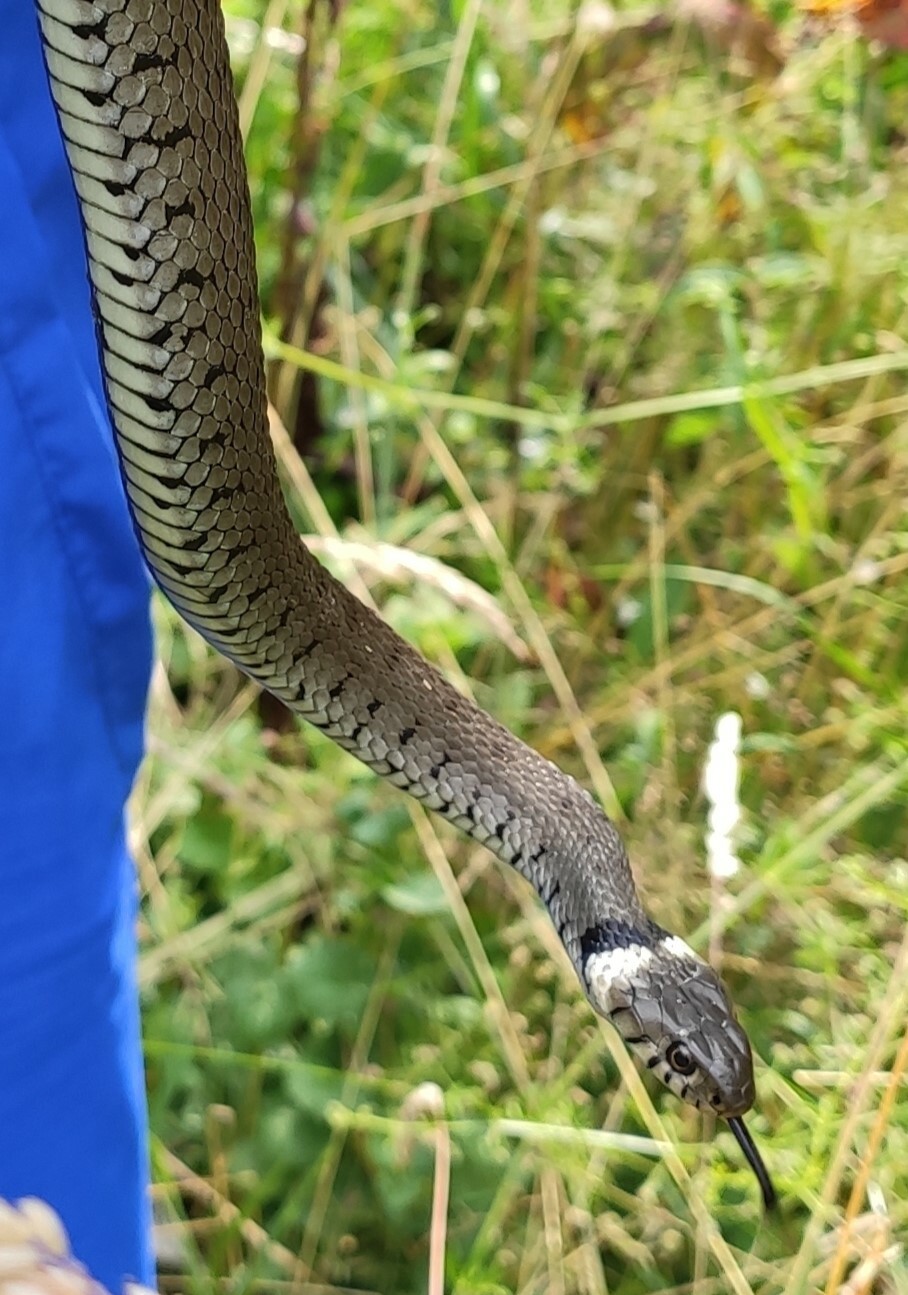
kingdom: Animalia
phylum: Chordata
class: Squamata
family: Colubridae
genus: Natrix
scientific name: Natrix helvetica
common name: Banded grass snake
